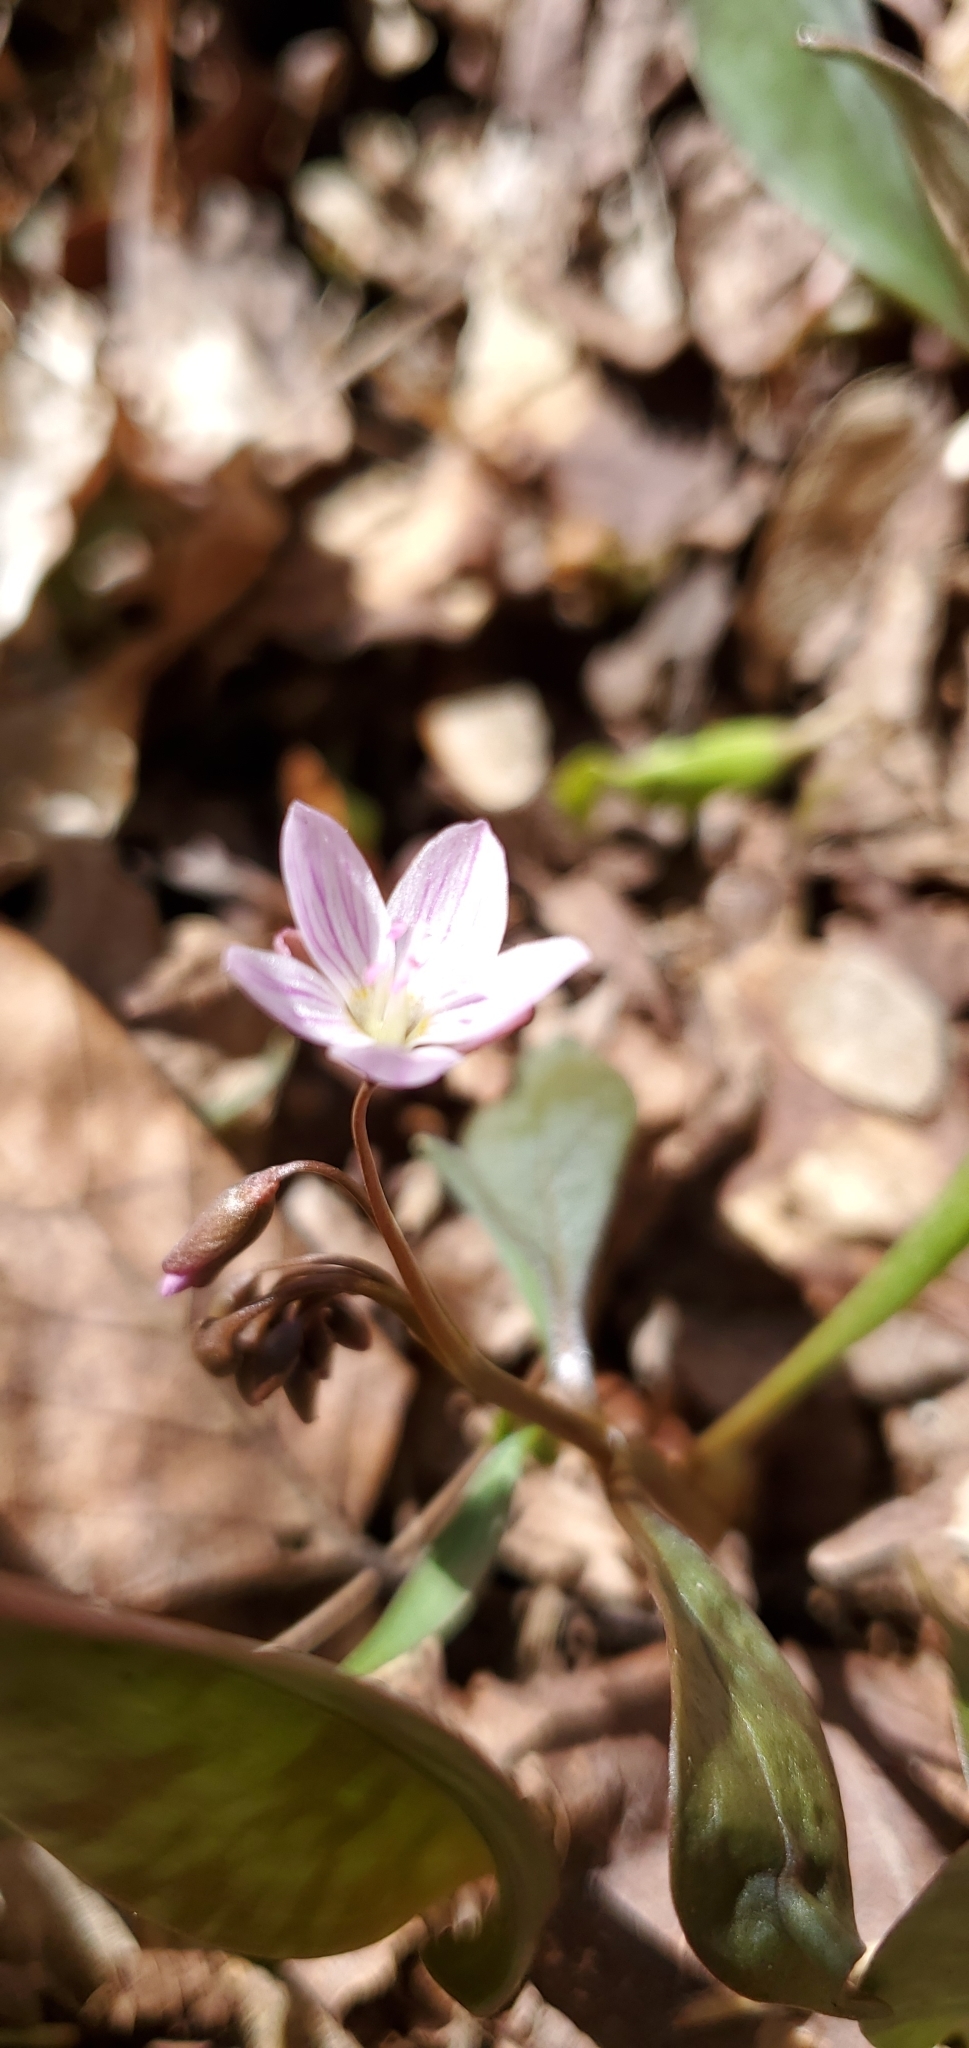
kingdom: Plantae
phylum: Tracheophyta
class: Magnoliopsida
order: Caryophyllales
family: Montiaceae
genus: Claytonia
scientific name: Claytonia caroliniana
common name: Carolina spring beauty
